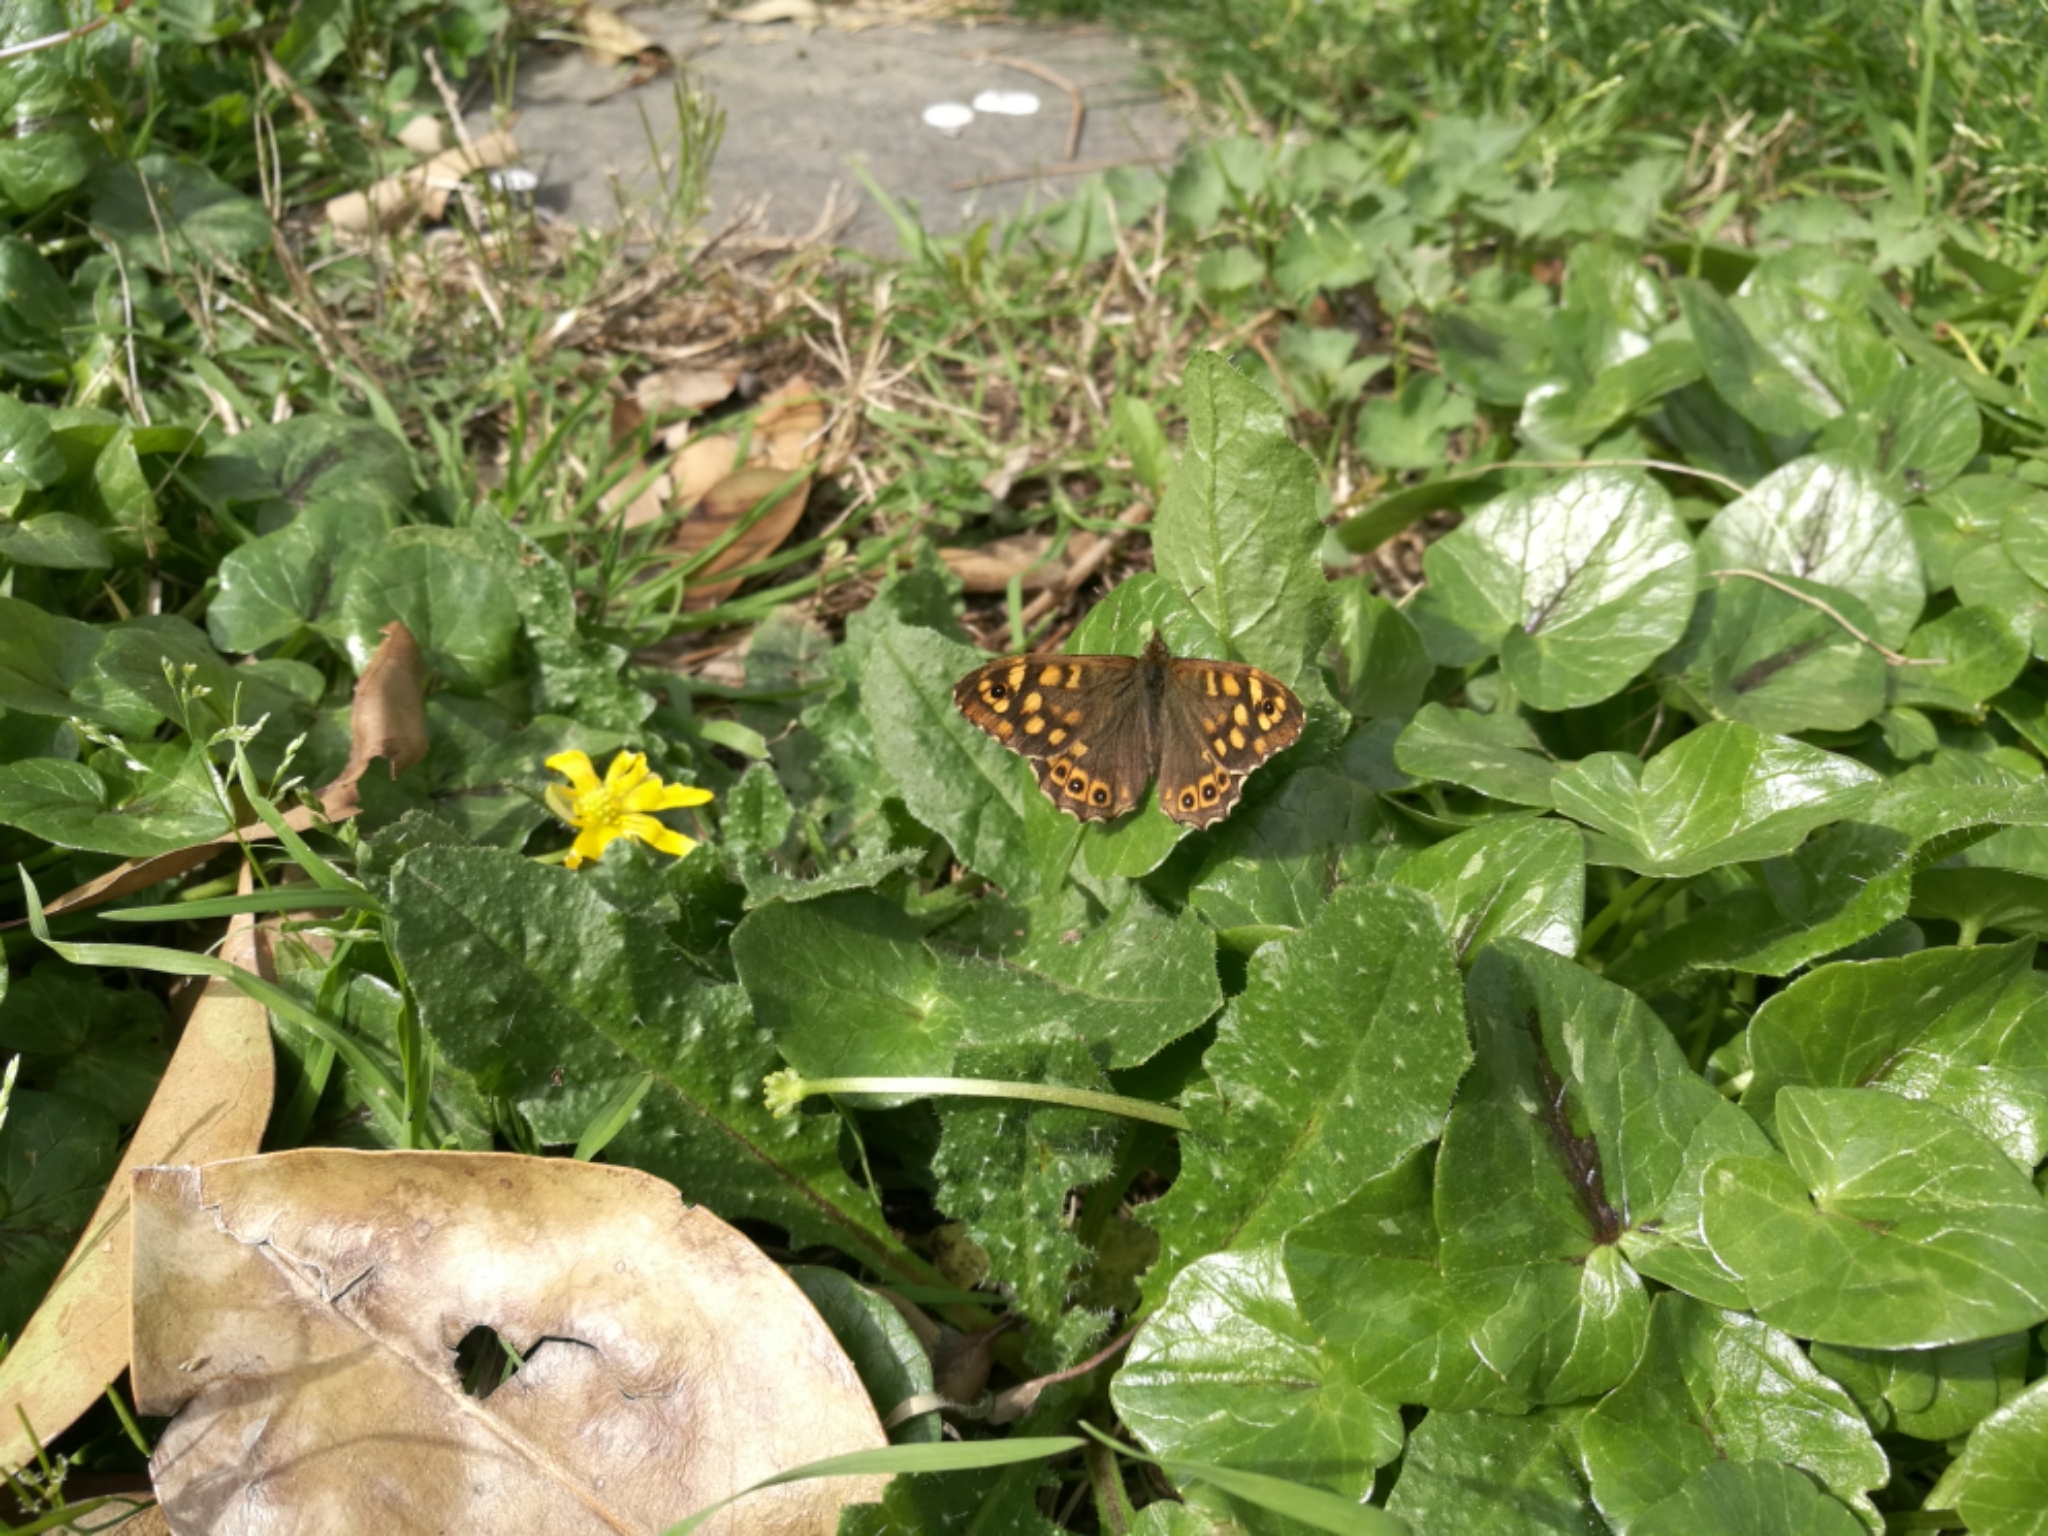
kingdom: Animalia
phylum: Arthropoda
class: Insecta
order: Lepidoptera
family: Nymphalidae
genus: Pararge
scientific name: Pararge aegeria
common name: Speckled wood
